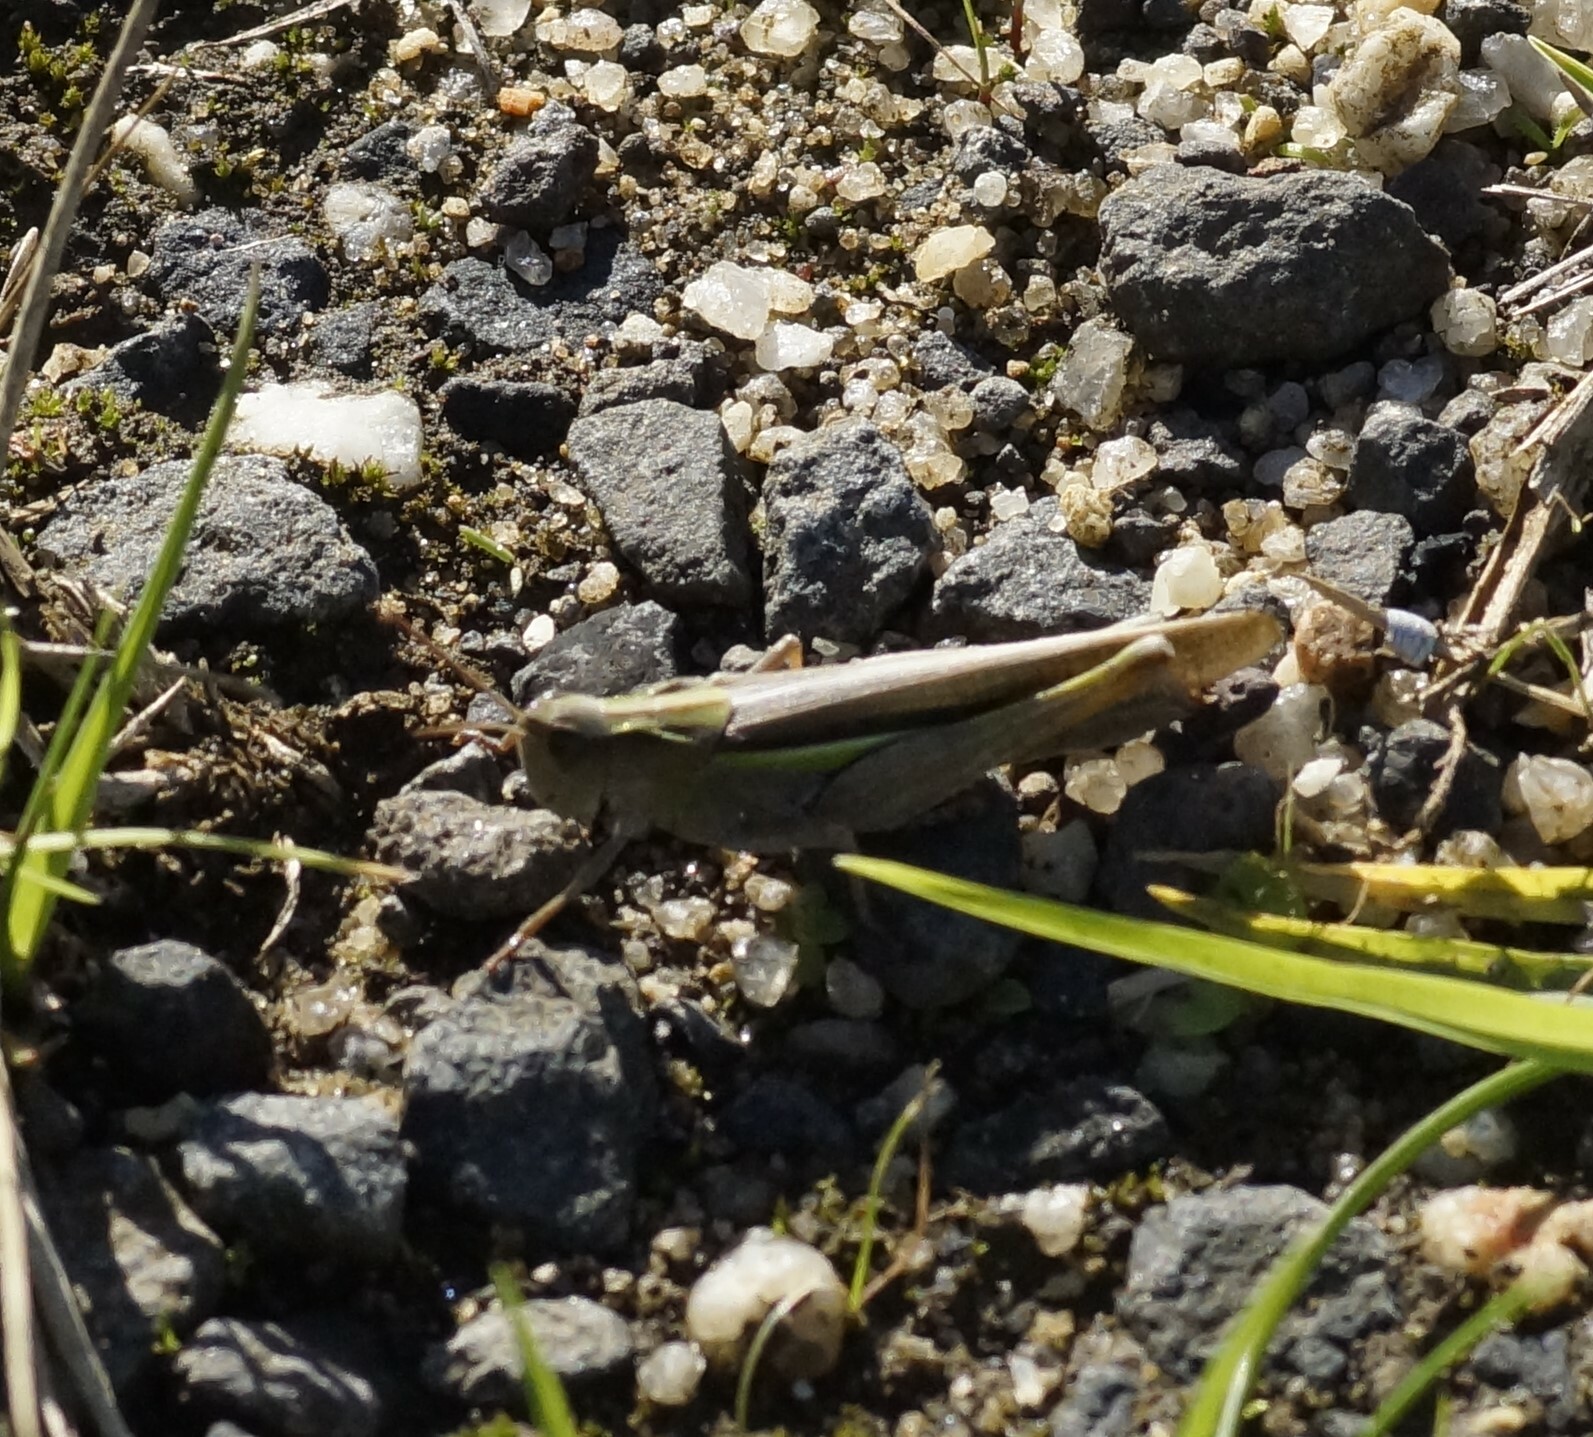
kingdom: Animalia
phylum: Arthropoda
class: Insecta
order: Orthoptera
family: Acrididae
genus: Schizobothrus
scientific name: Schizobothrus flavovittatus
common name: Disappearing grasshopper
